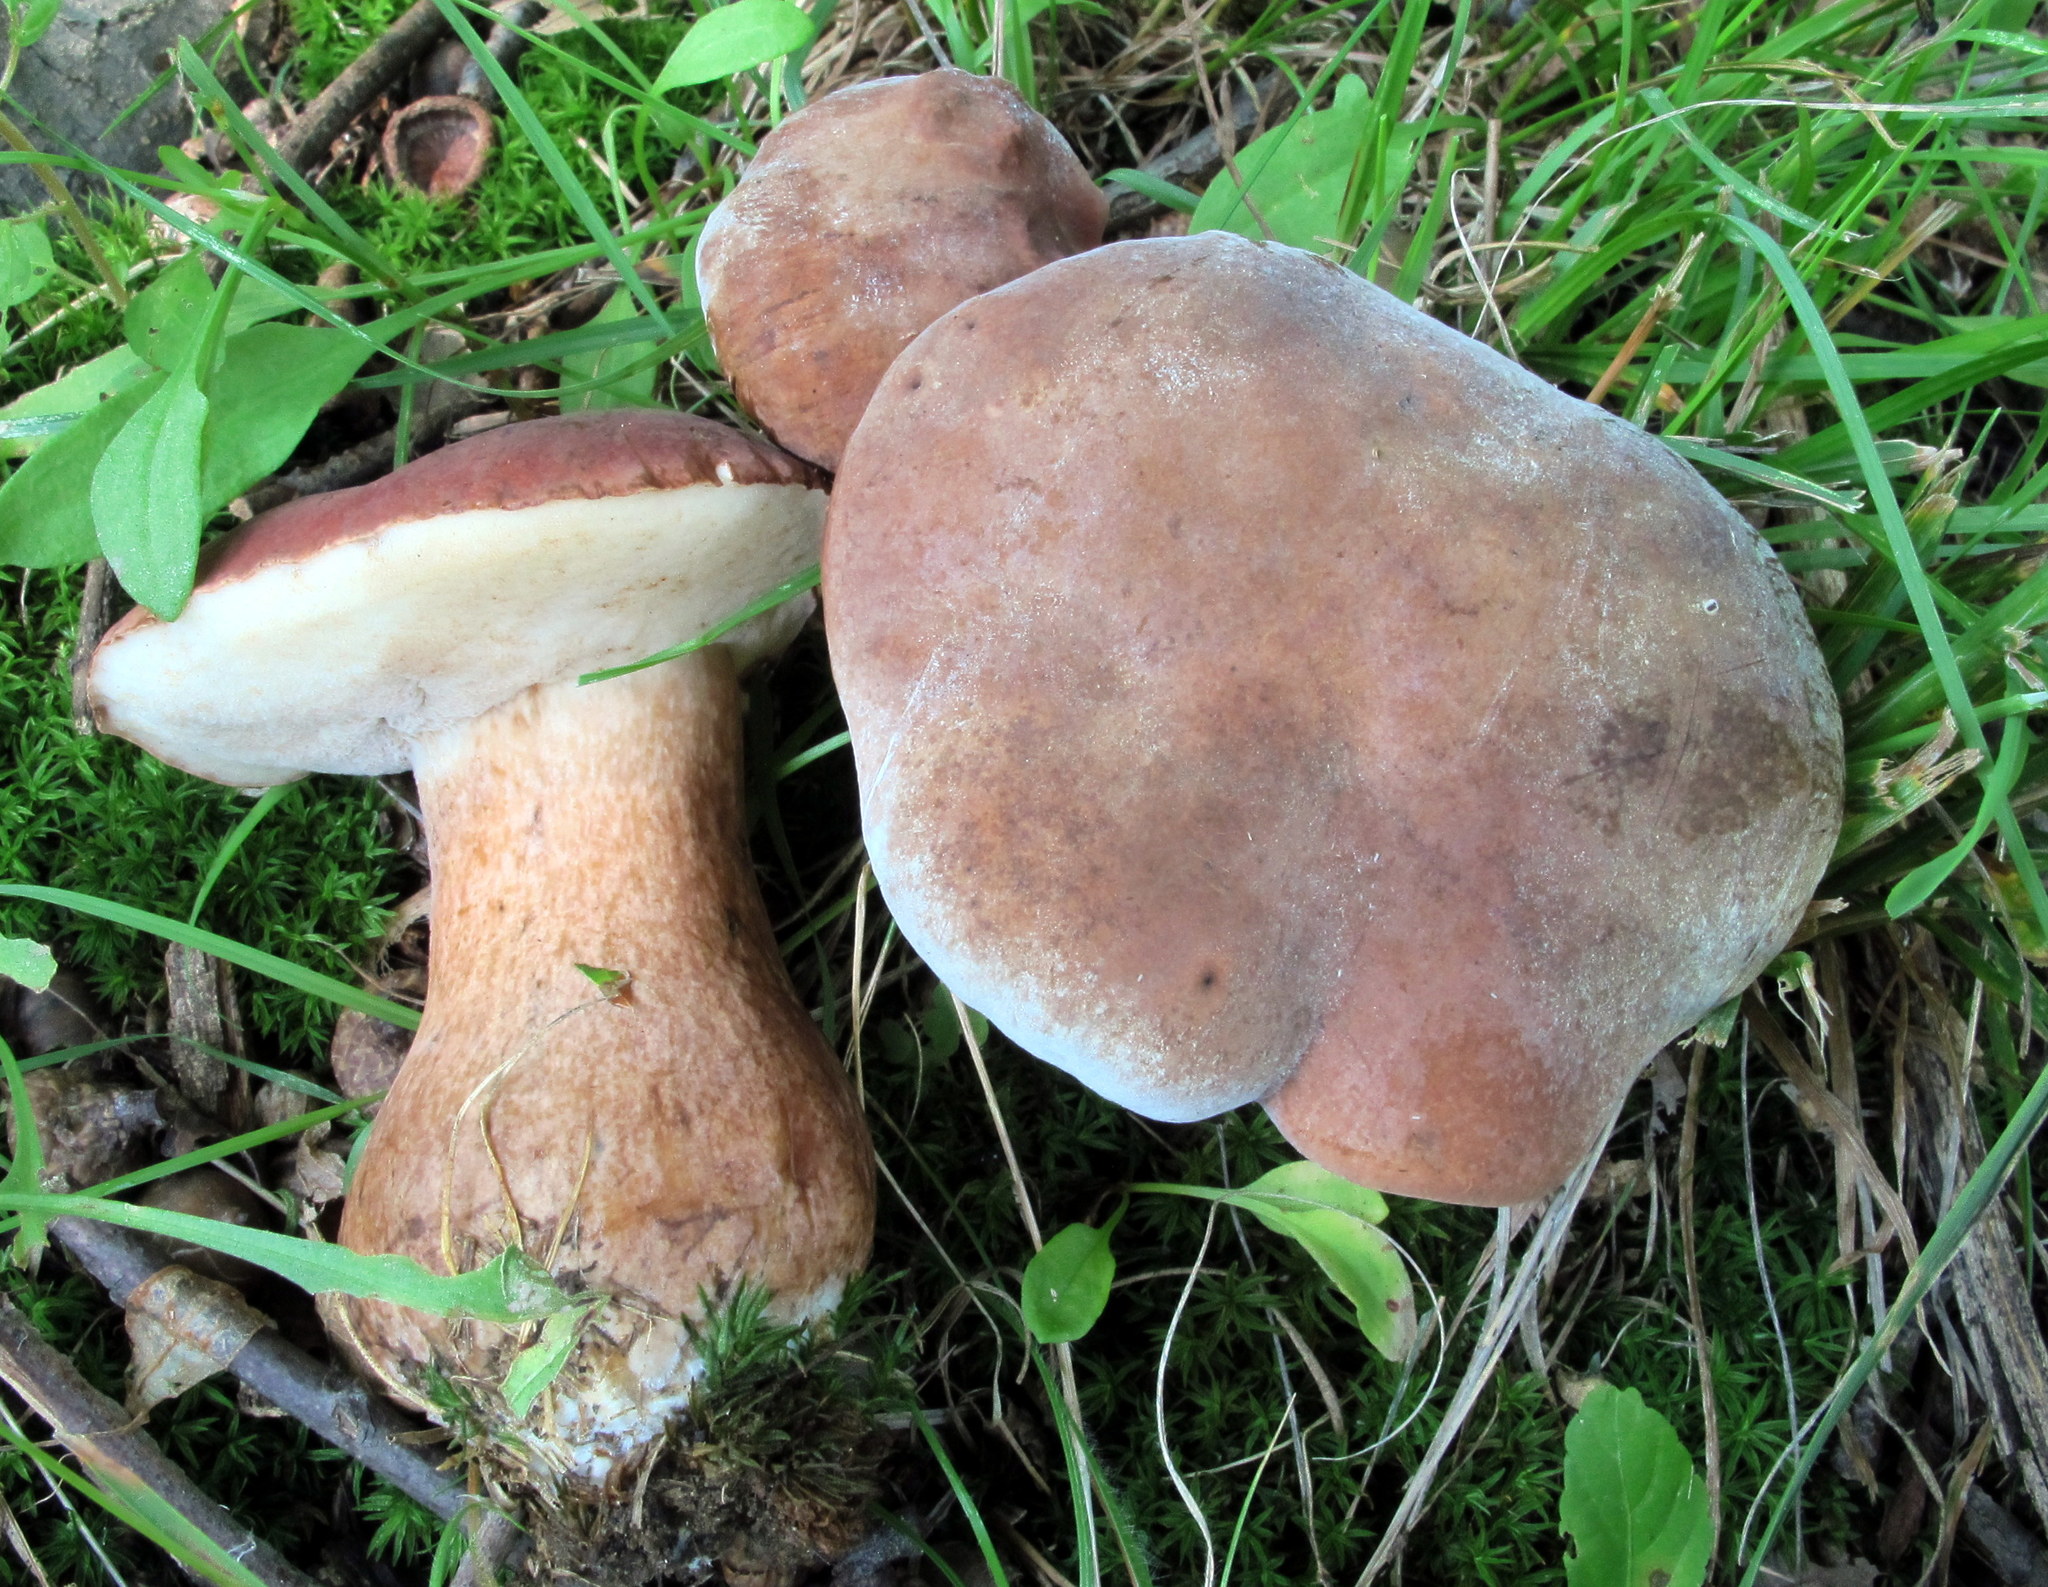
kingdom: Fungi
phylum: Basidiomycota
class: Agaricomycetes
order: Boletales
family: Boletaceae
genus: Tylopilus
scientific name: Tylopilus ferrugineus
